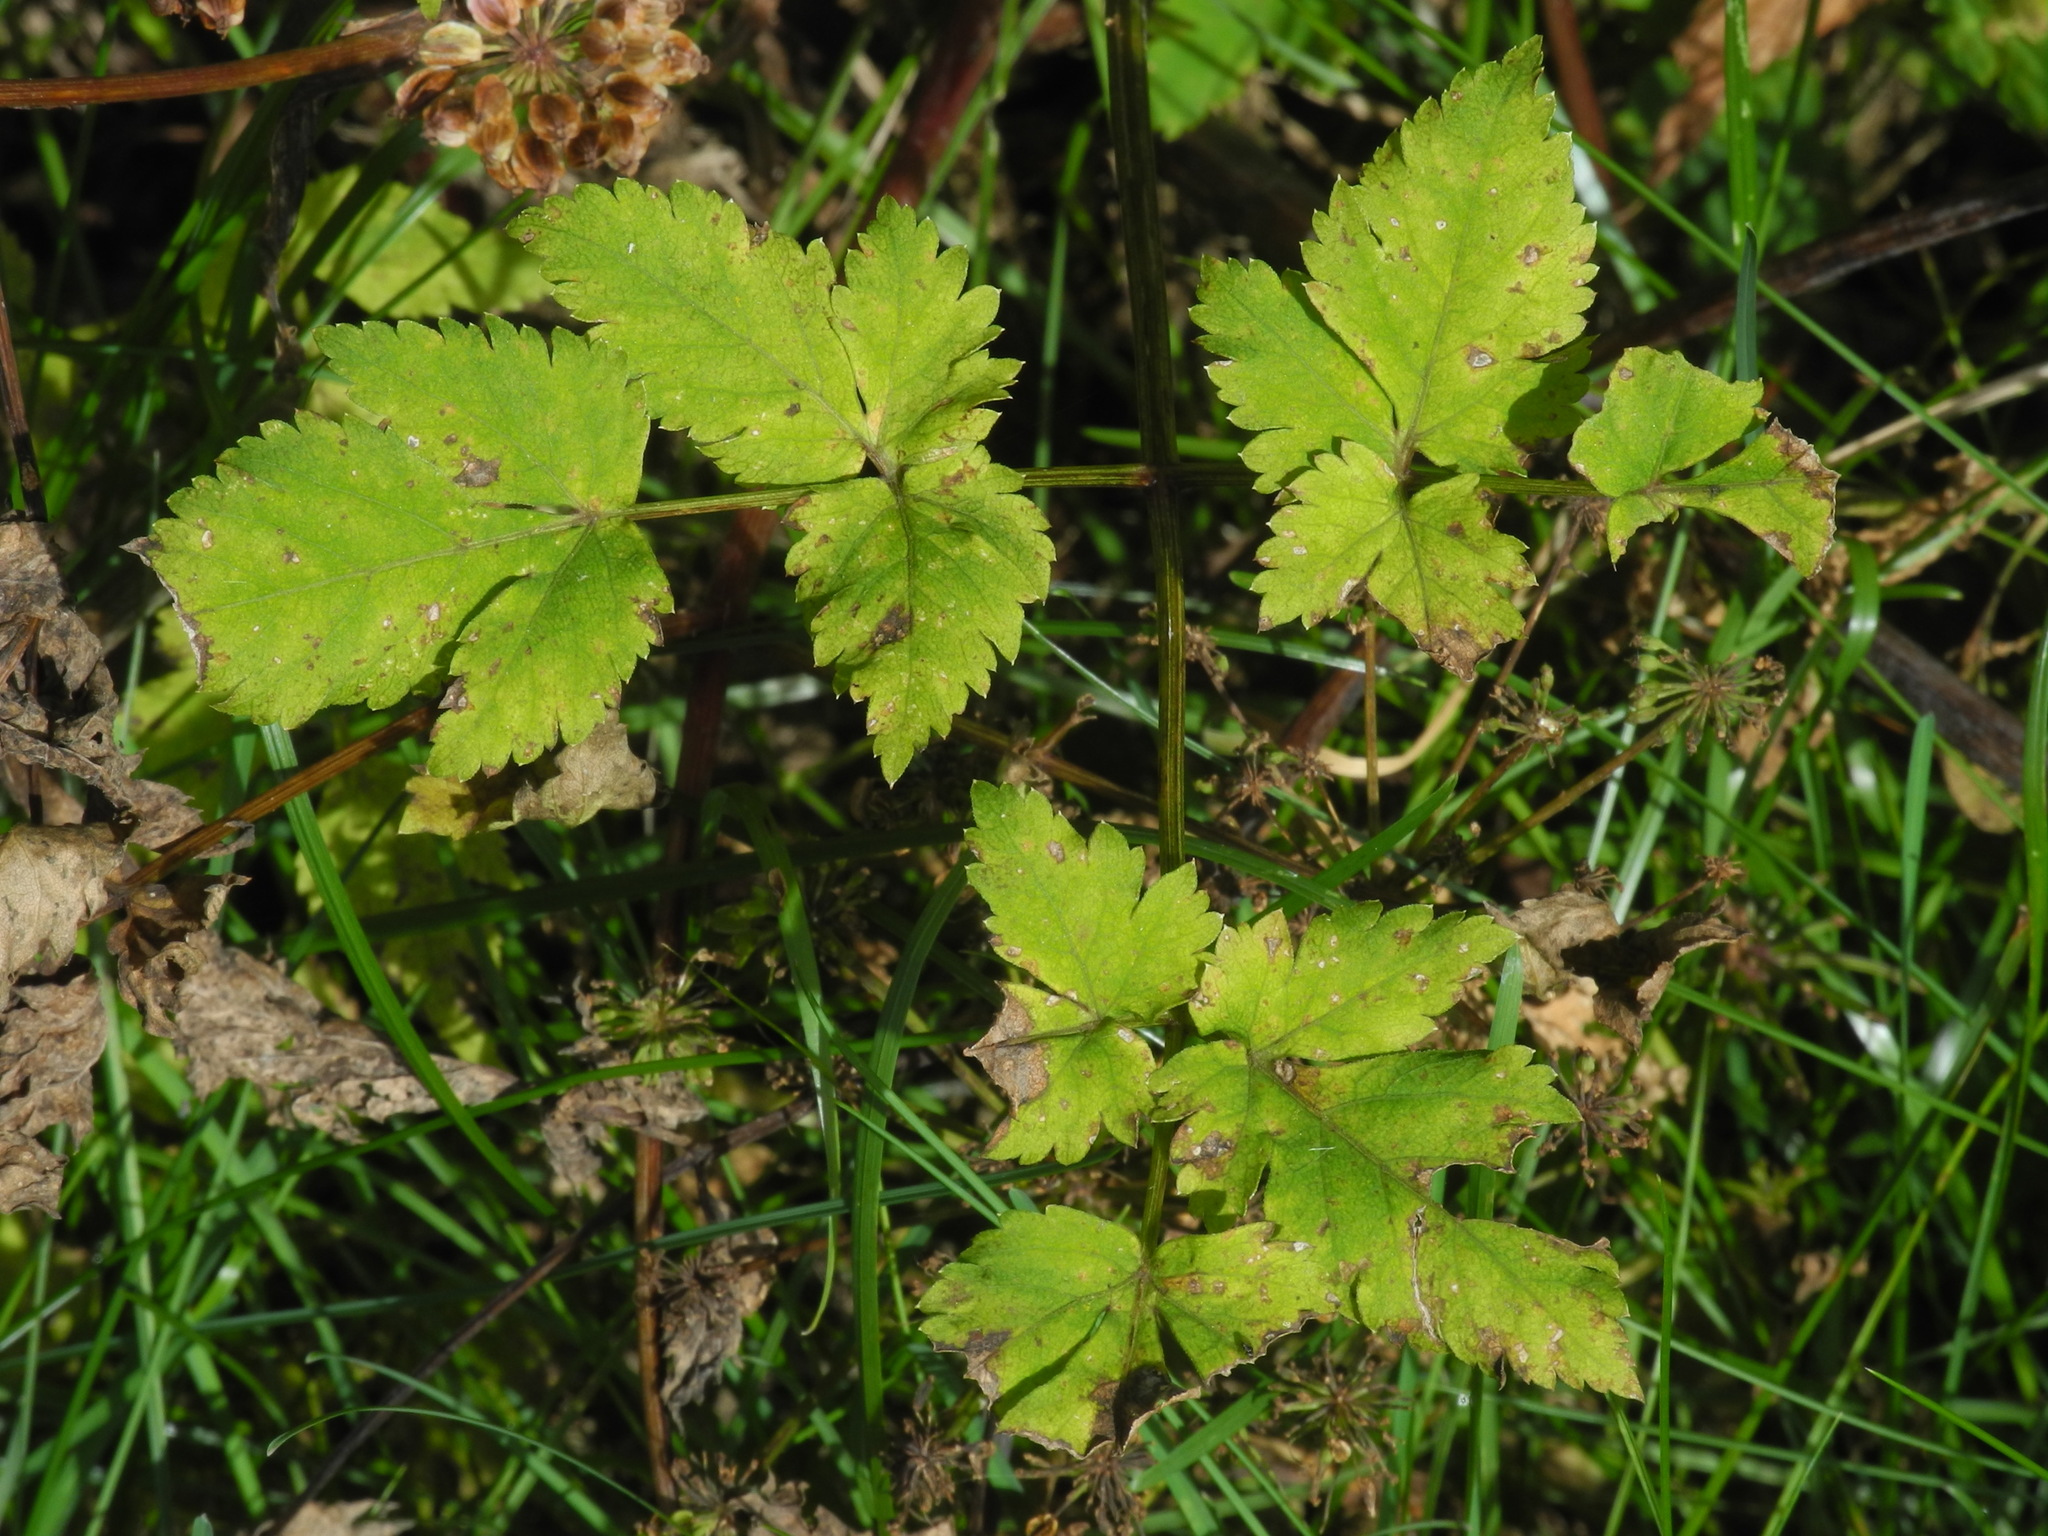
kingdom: Plantae
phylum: Tracheophyta
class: Magnoliopsida
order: Apiales
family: Apiaceae
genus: Angelica
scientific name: Angelica triquinata
